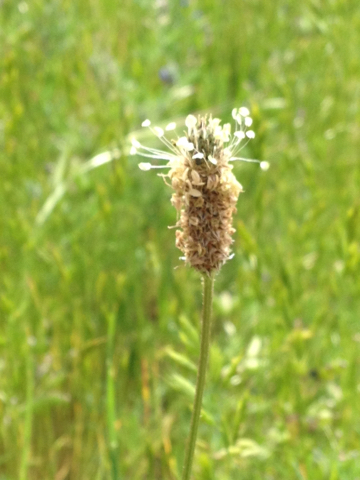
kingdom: Plantae
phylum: Tracheophyta
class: Magnoliopsida
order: Lamiales
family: Plantaginaceae
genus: Plantago
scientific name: Plantago lanceolata
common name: Ribwort plantain
